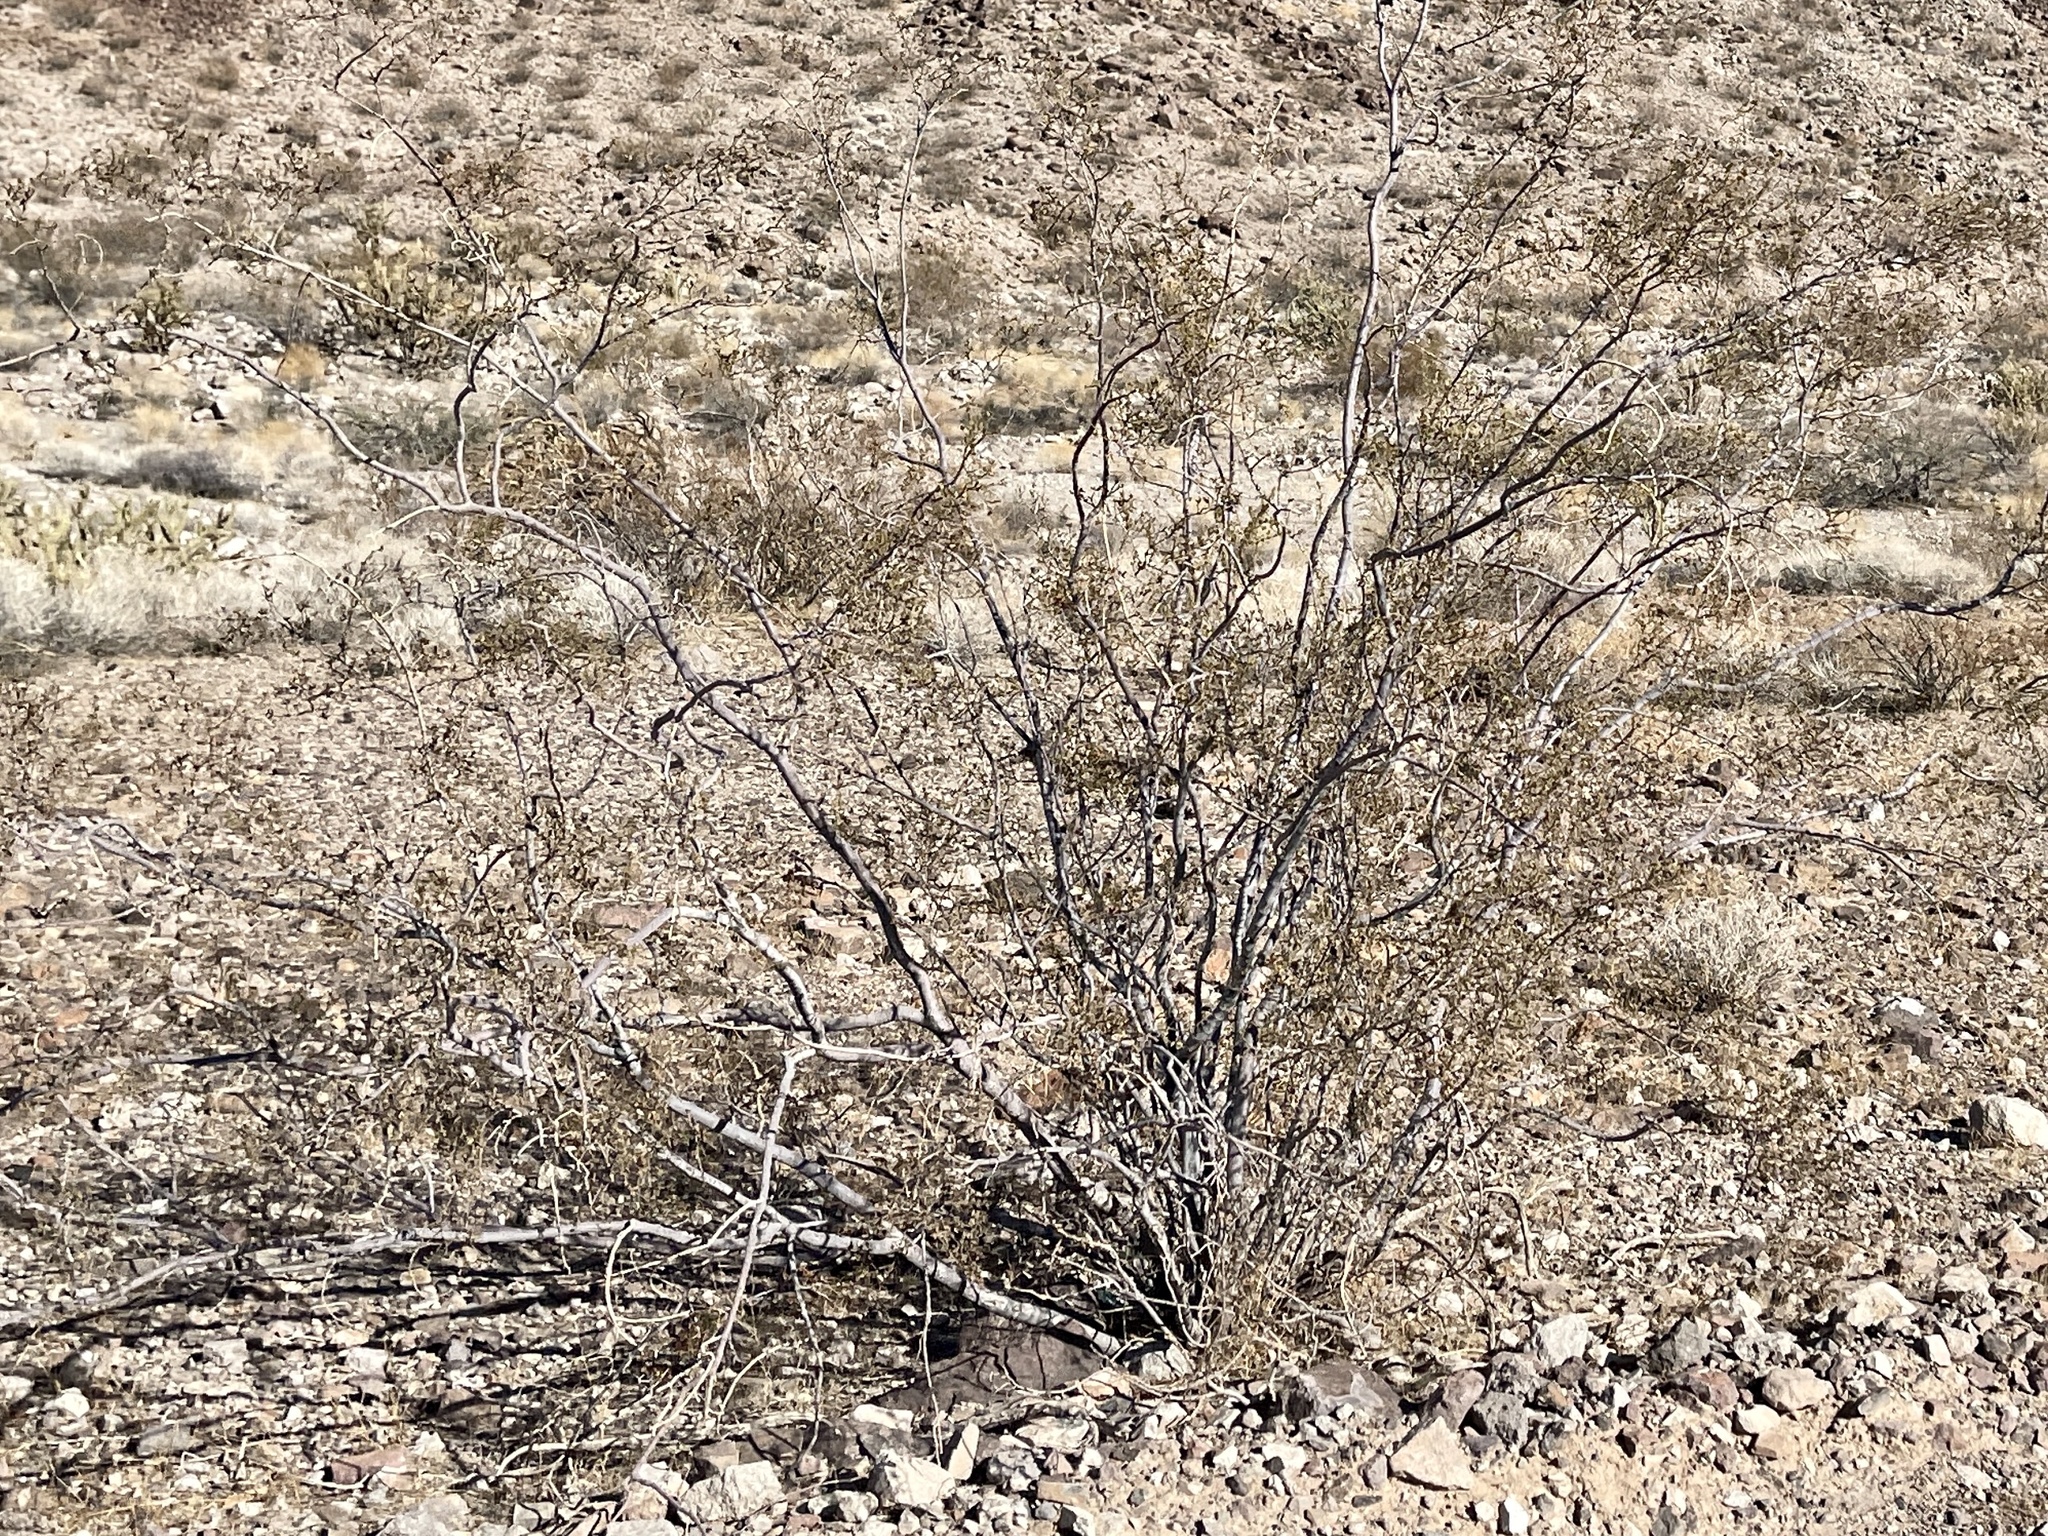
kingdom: Plantae
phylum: Tracheophyta
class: Magnoliopsida
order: Zygophyllales
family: Zygophyllaceae
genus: Larrea
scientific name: Larrea tridentata
